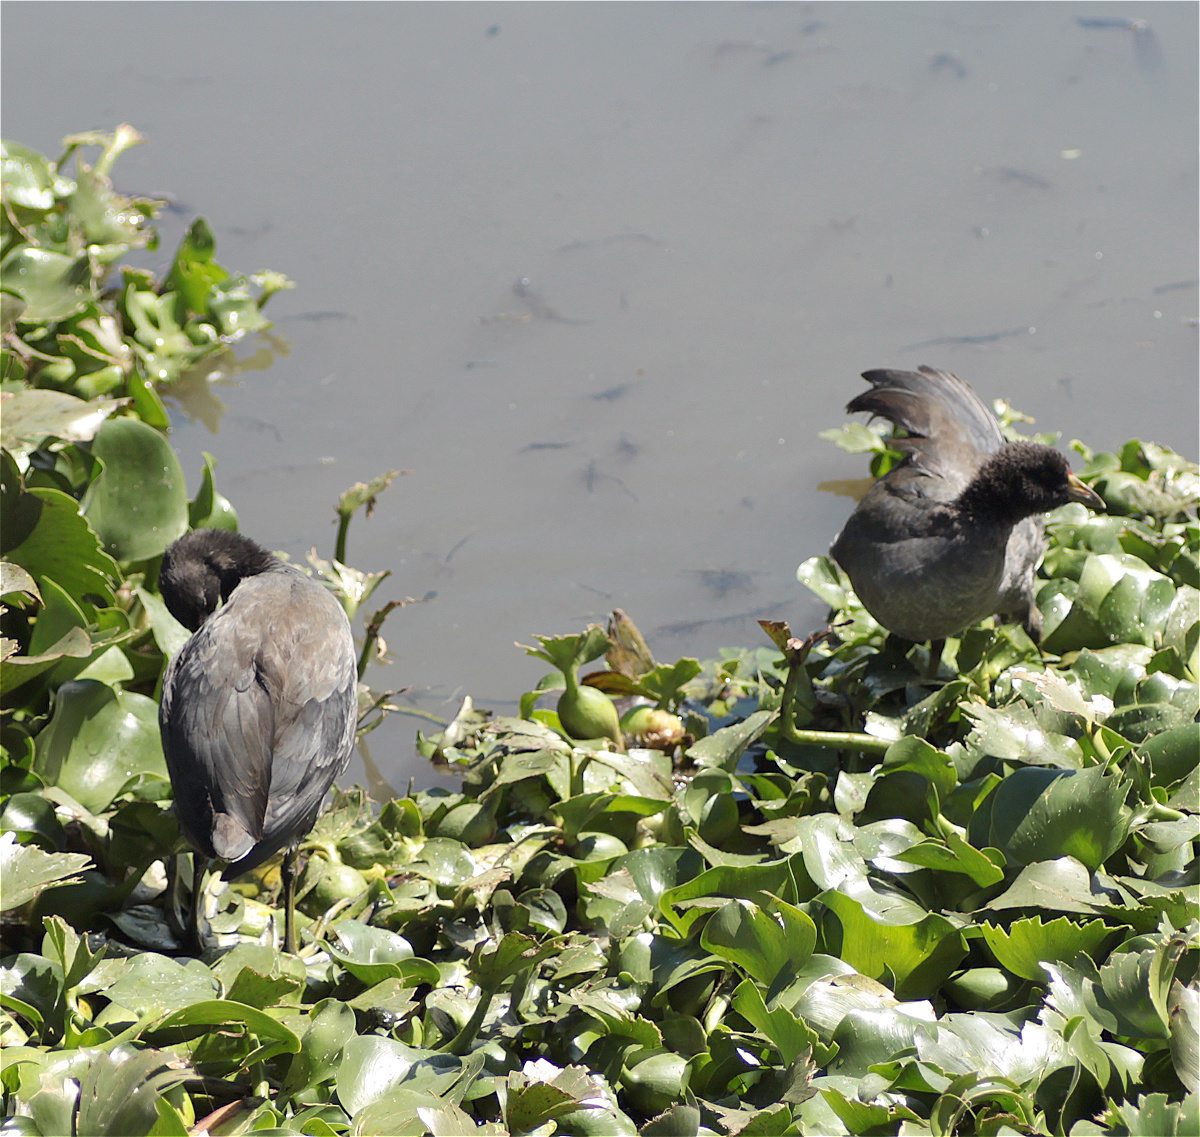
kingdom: Animalia
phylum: Chordata
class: Aves
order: Gruiformes
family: Rallidae
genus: Fulica
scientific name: Fulica americana
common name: American coot
